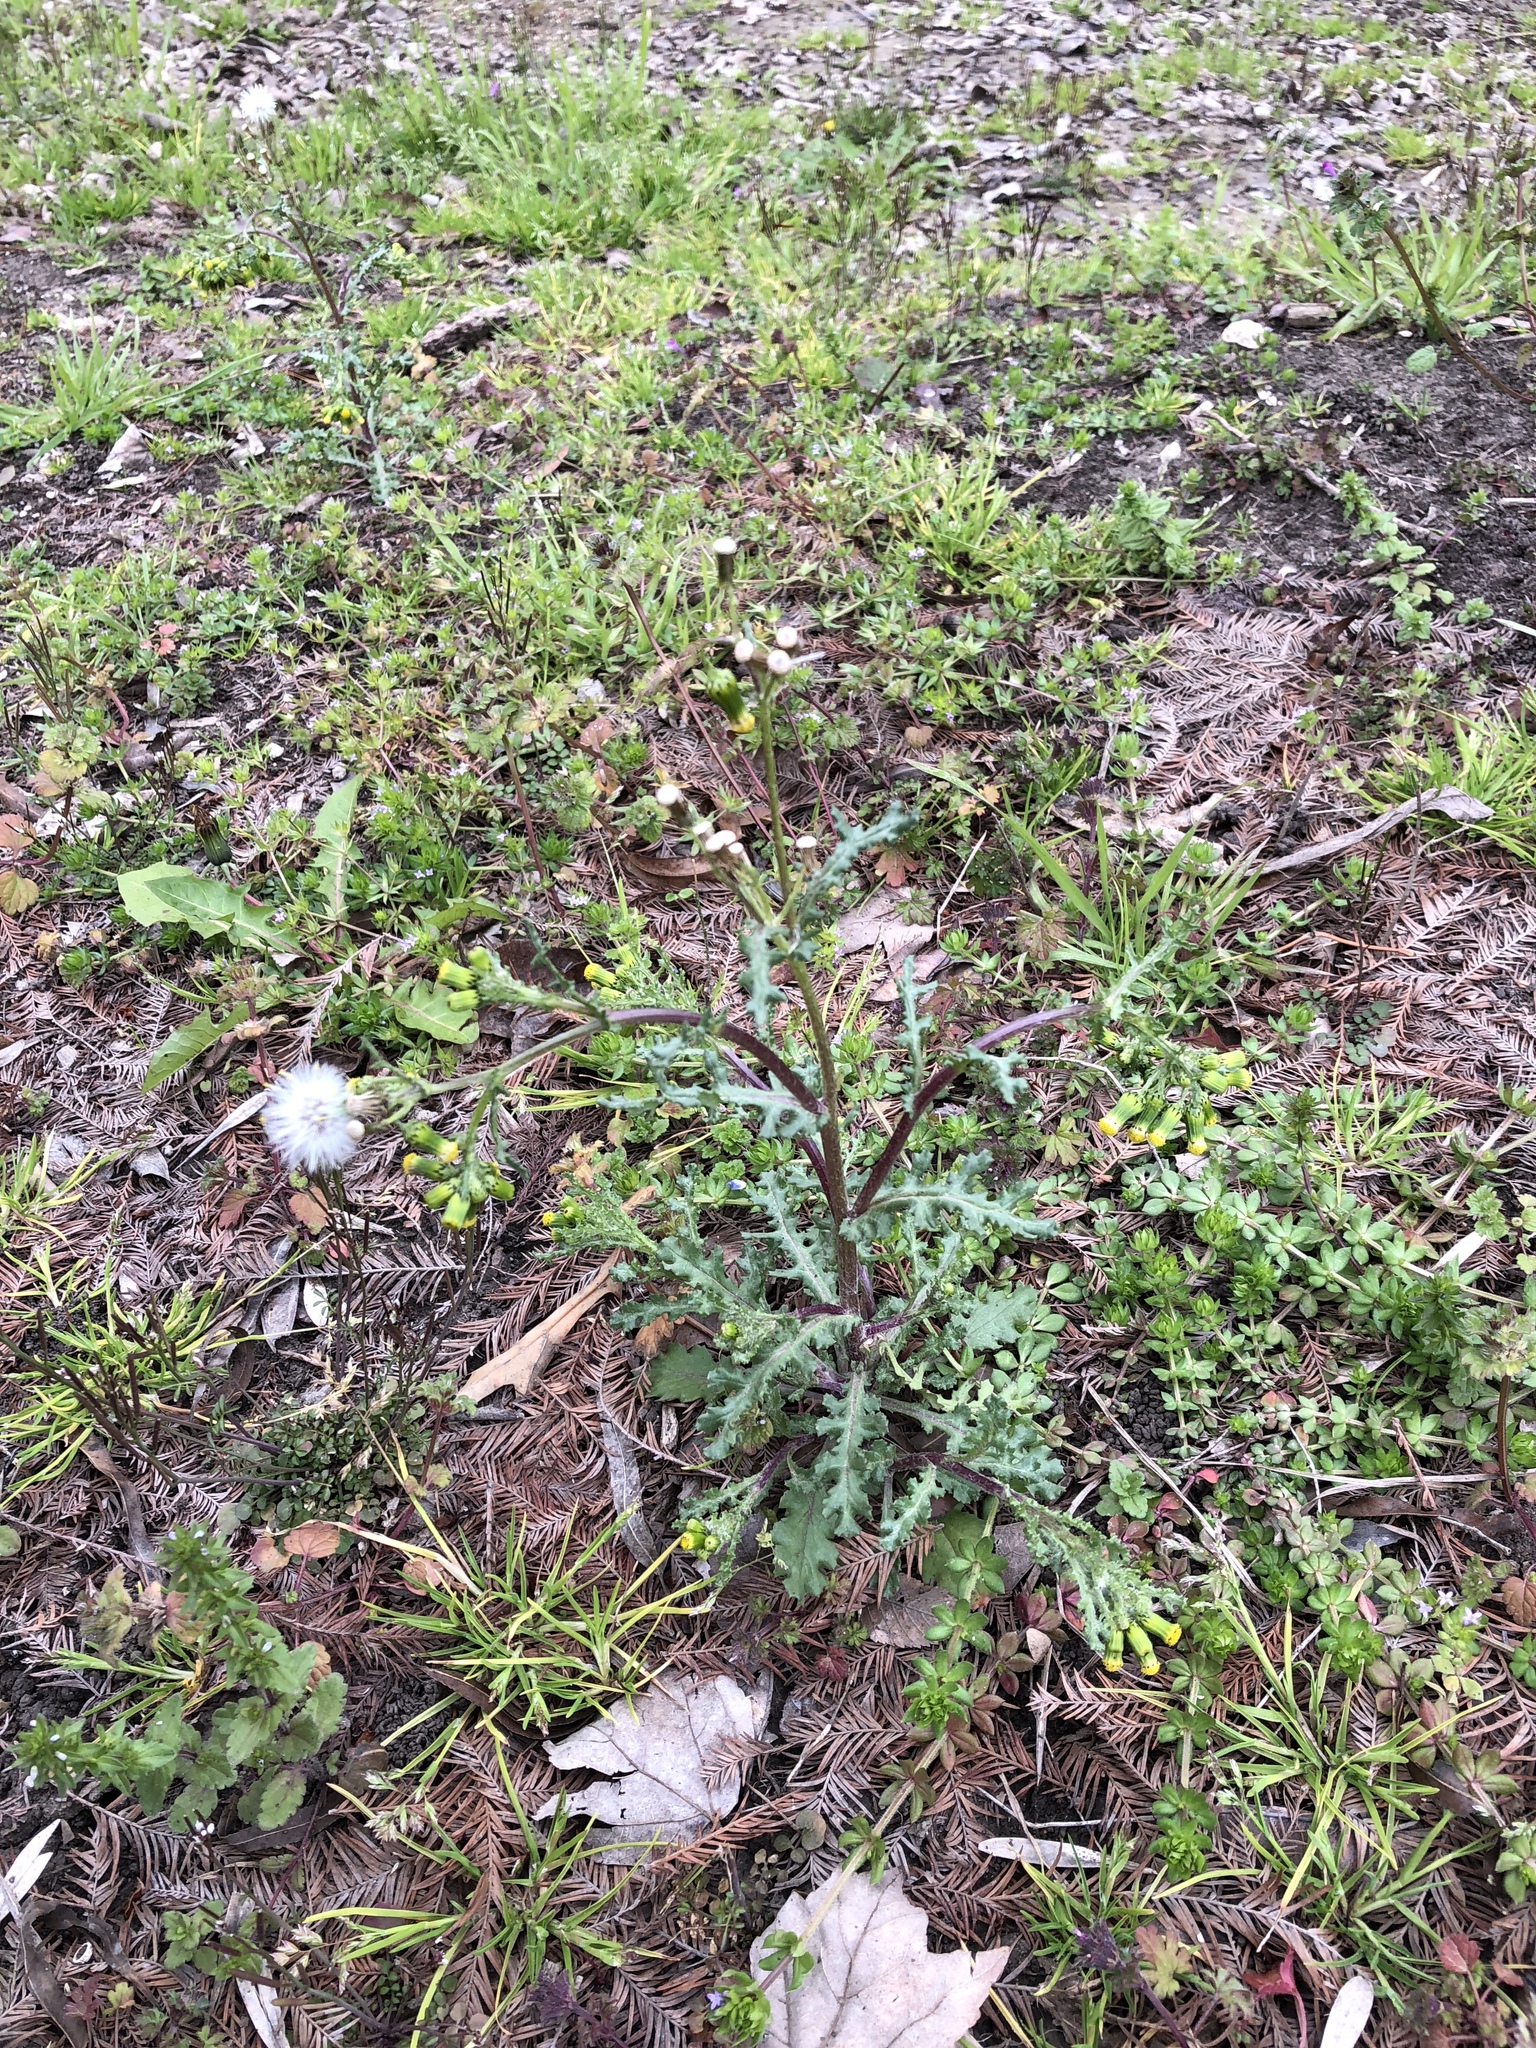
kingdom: Plantae
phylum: Tracheophyta
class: Magnoliopsida
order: Asterales
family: Asteraceae
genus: Senecio
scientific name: Senecio vulgaris
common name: Old-man-in-the-spring
